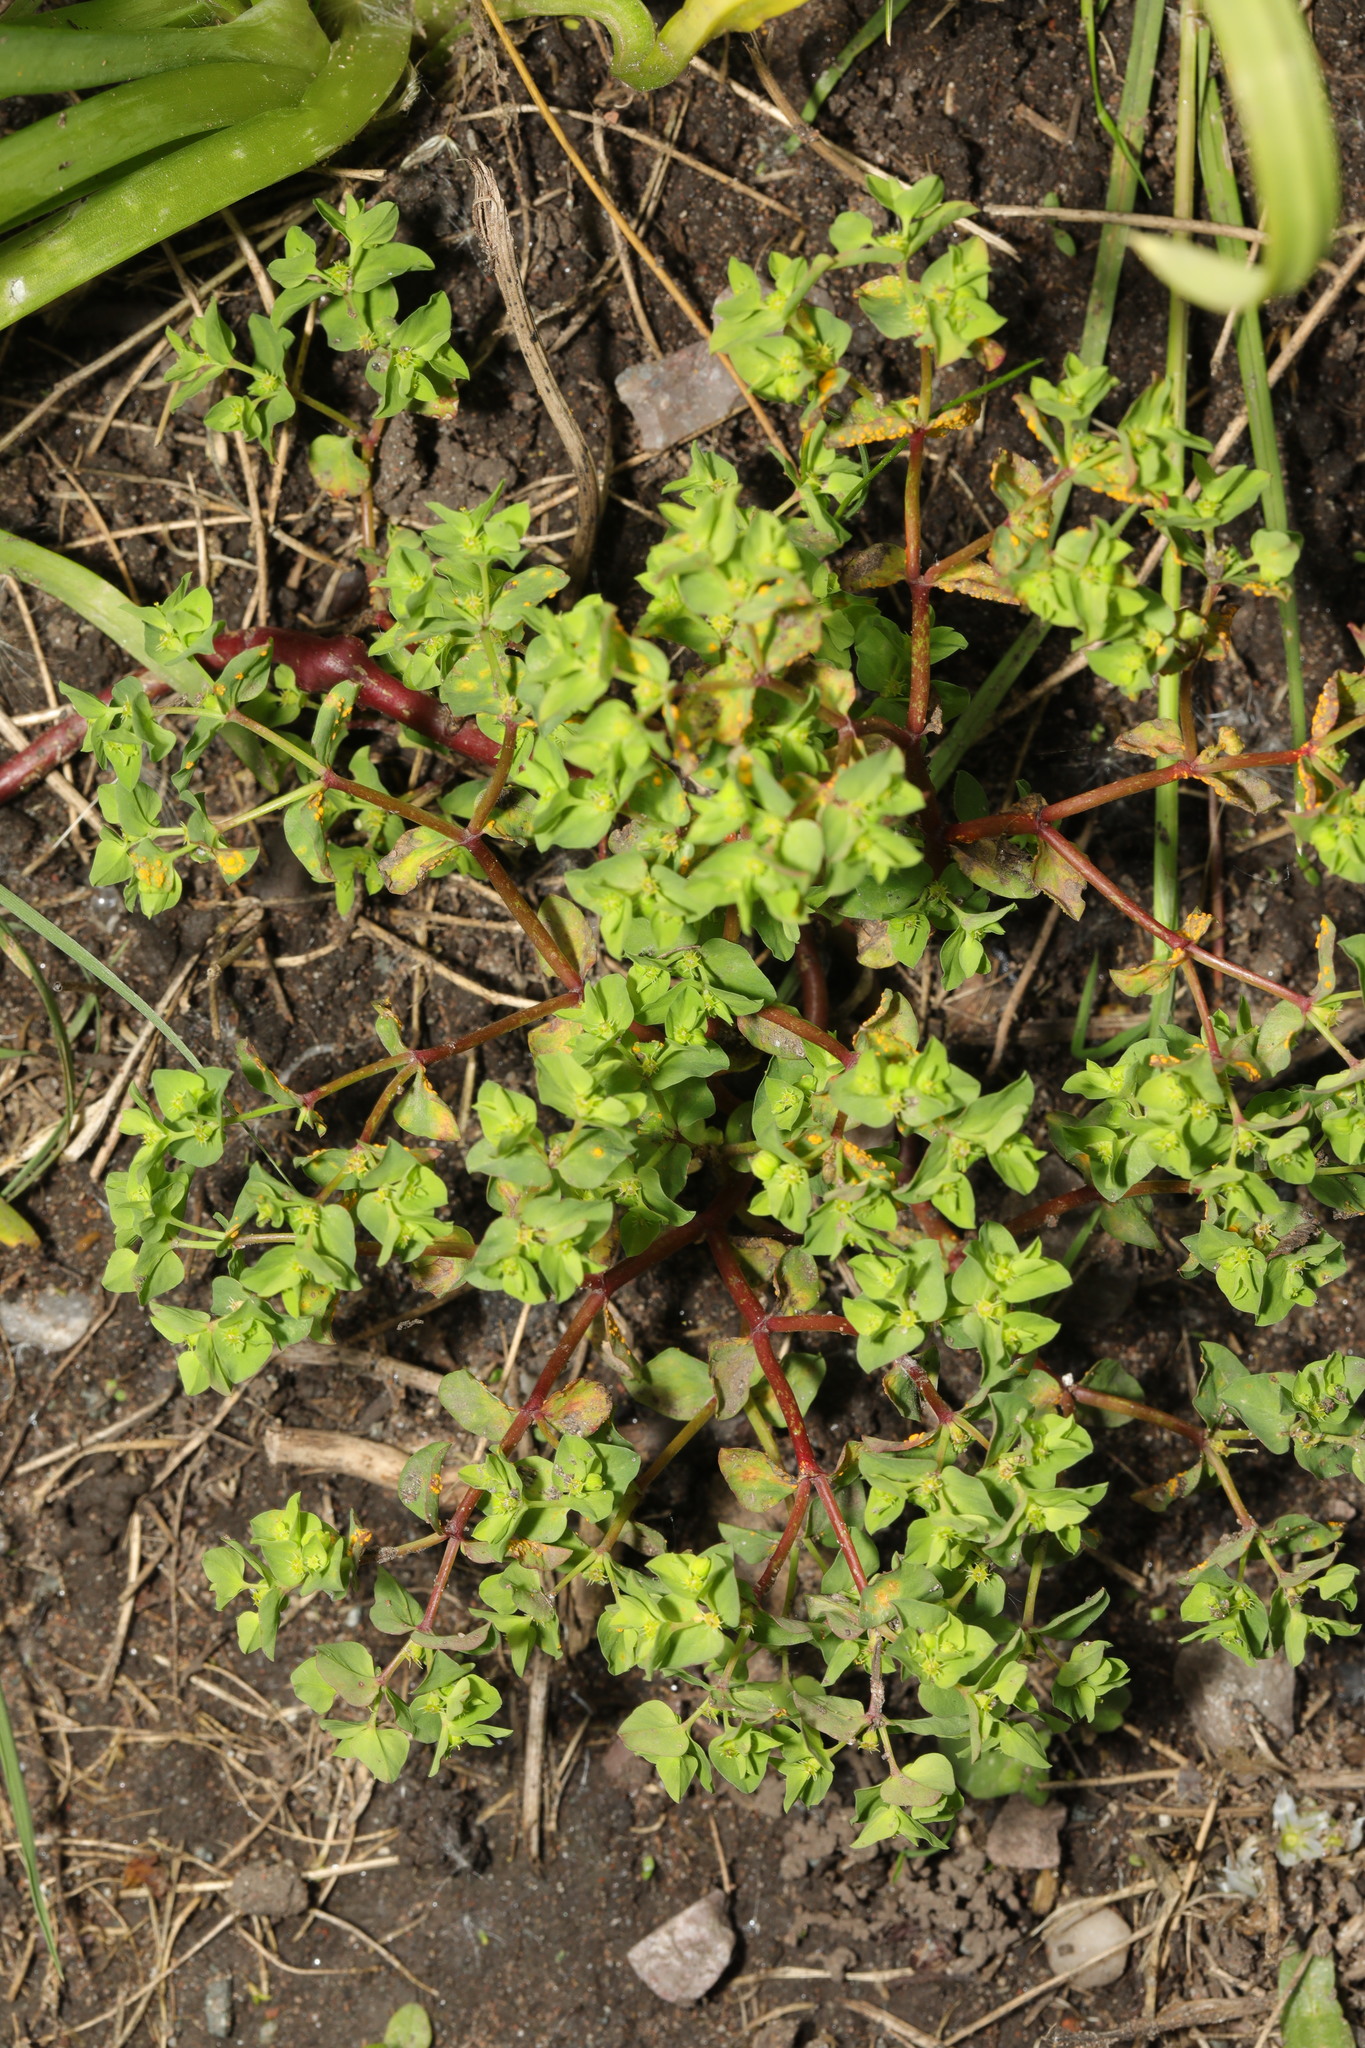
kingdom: Plantae
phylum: Tracheophyta
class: Magnoliopsida
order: Malpighiales
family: Euphorbiaceae
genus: Euphorbia
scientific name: Euphorbia peplus
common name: Petty spurge
